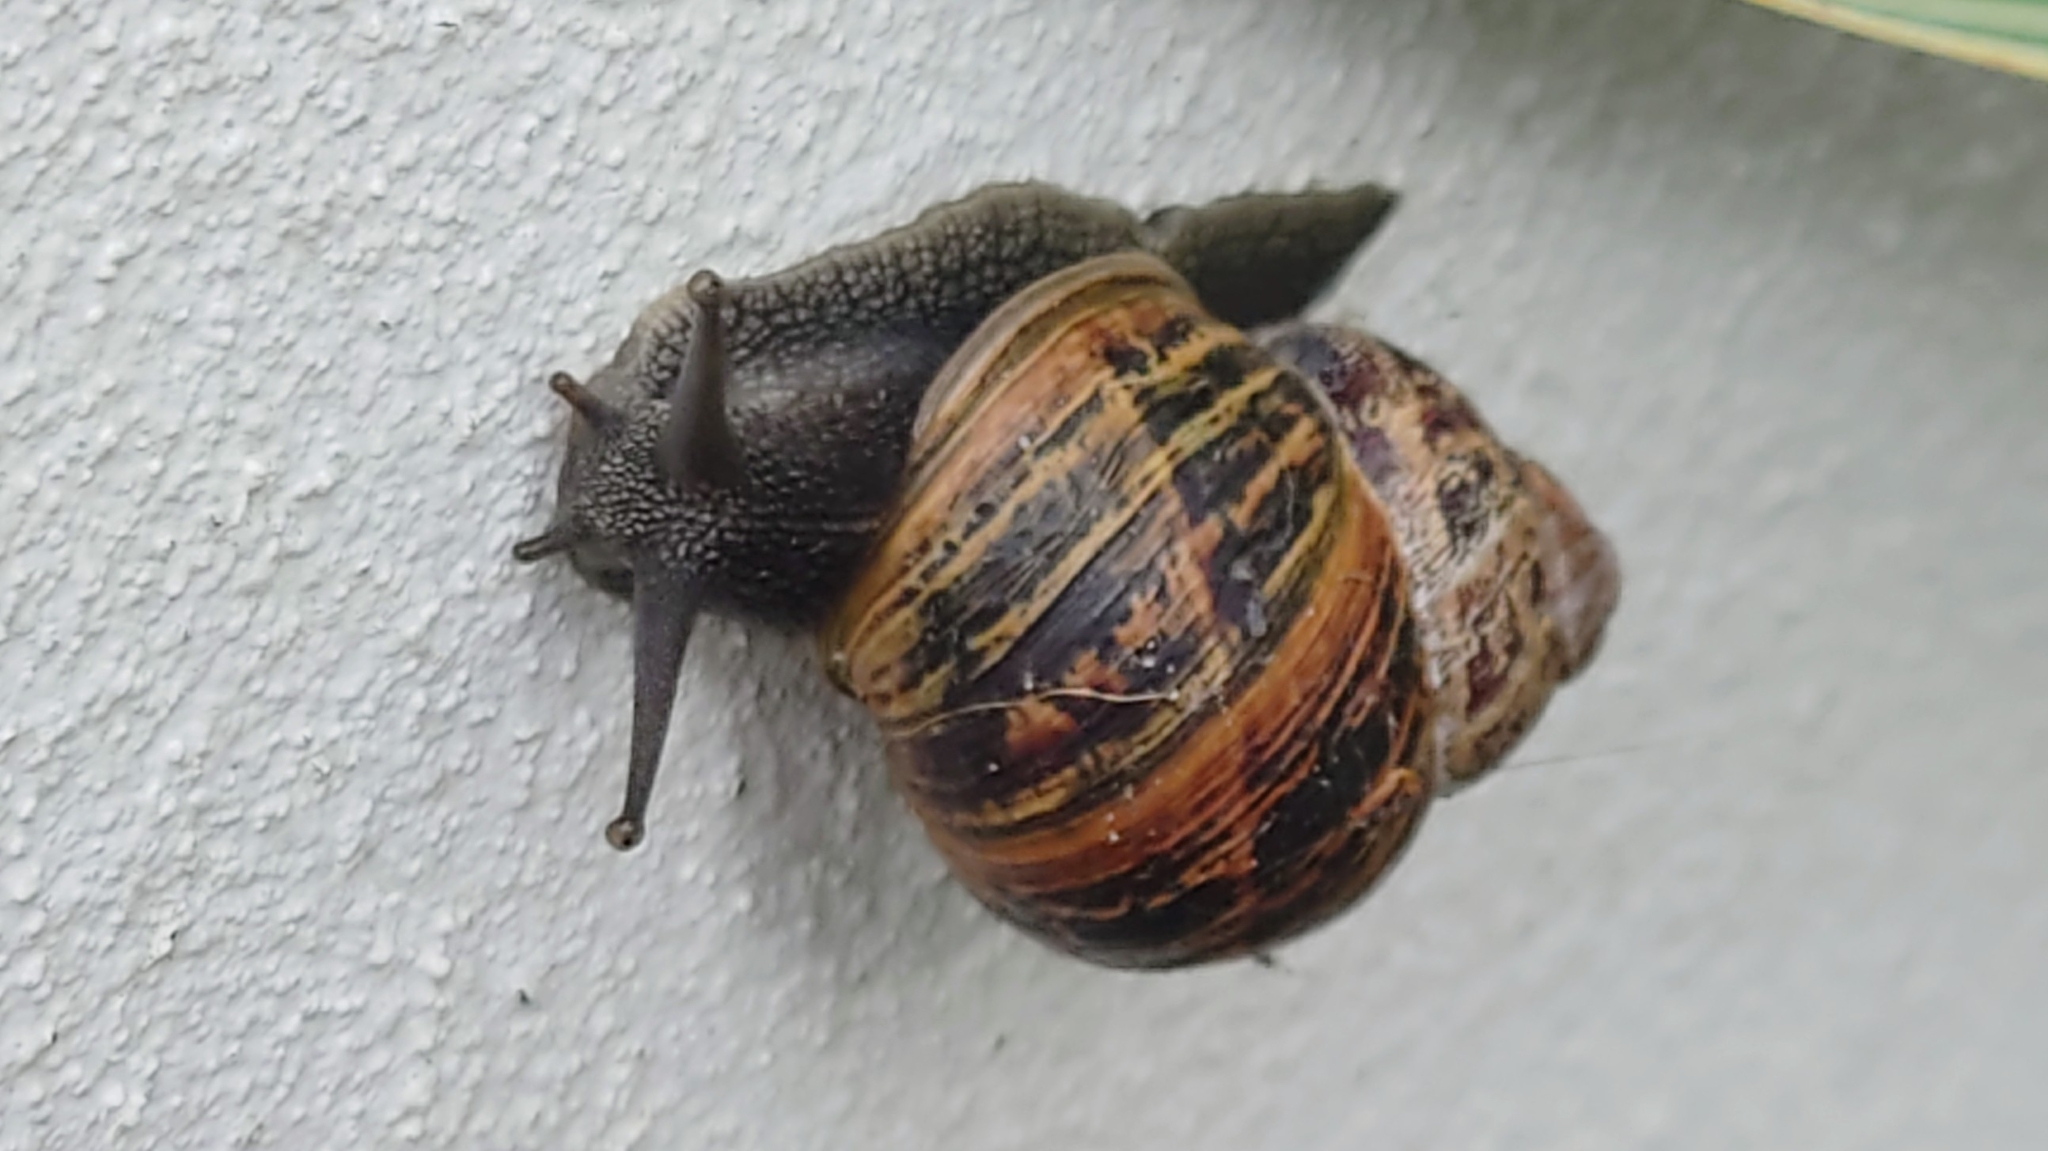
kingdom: Animalia
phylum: Mollusca
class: Gastropoda
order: Stylommatophora
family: Helicidae
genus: Cornu
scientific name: Cornu aspersum
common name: Brown garden snail
